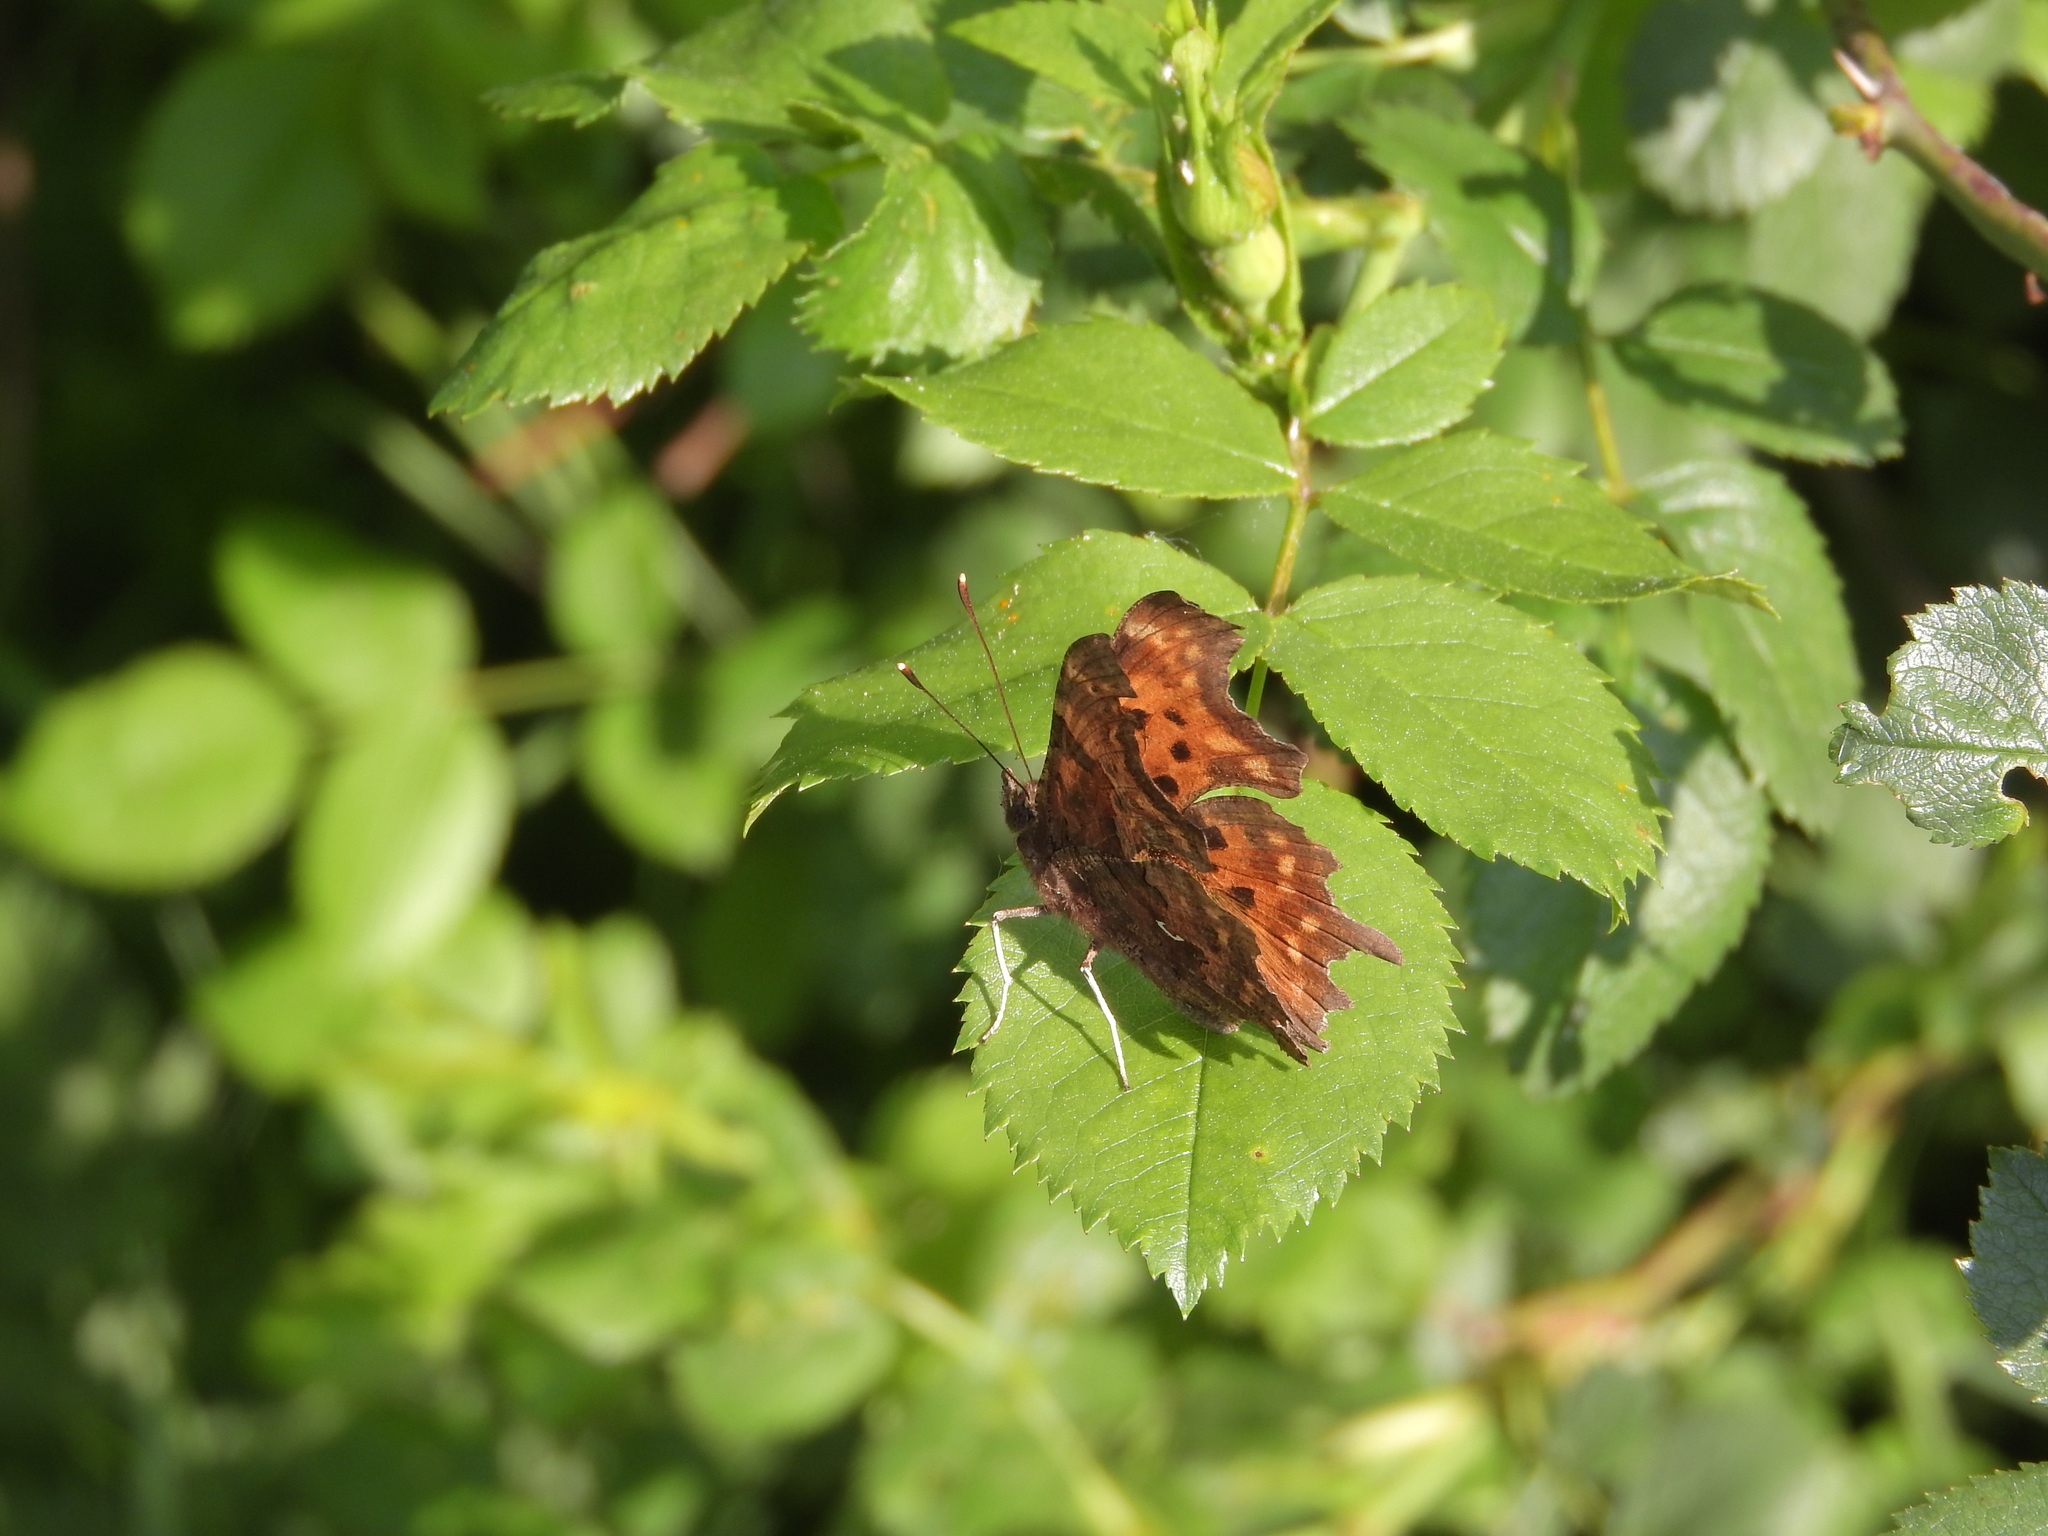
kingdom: Animalia
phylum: Arthropoda
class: Insecta
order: Lepidoptera
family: Nymphalidae
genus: Polygonia
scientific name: Polygonia c-album
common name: Comma
